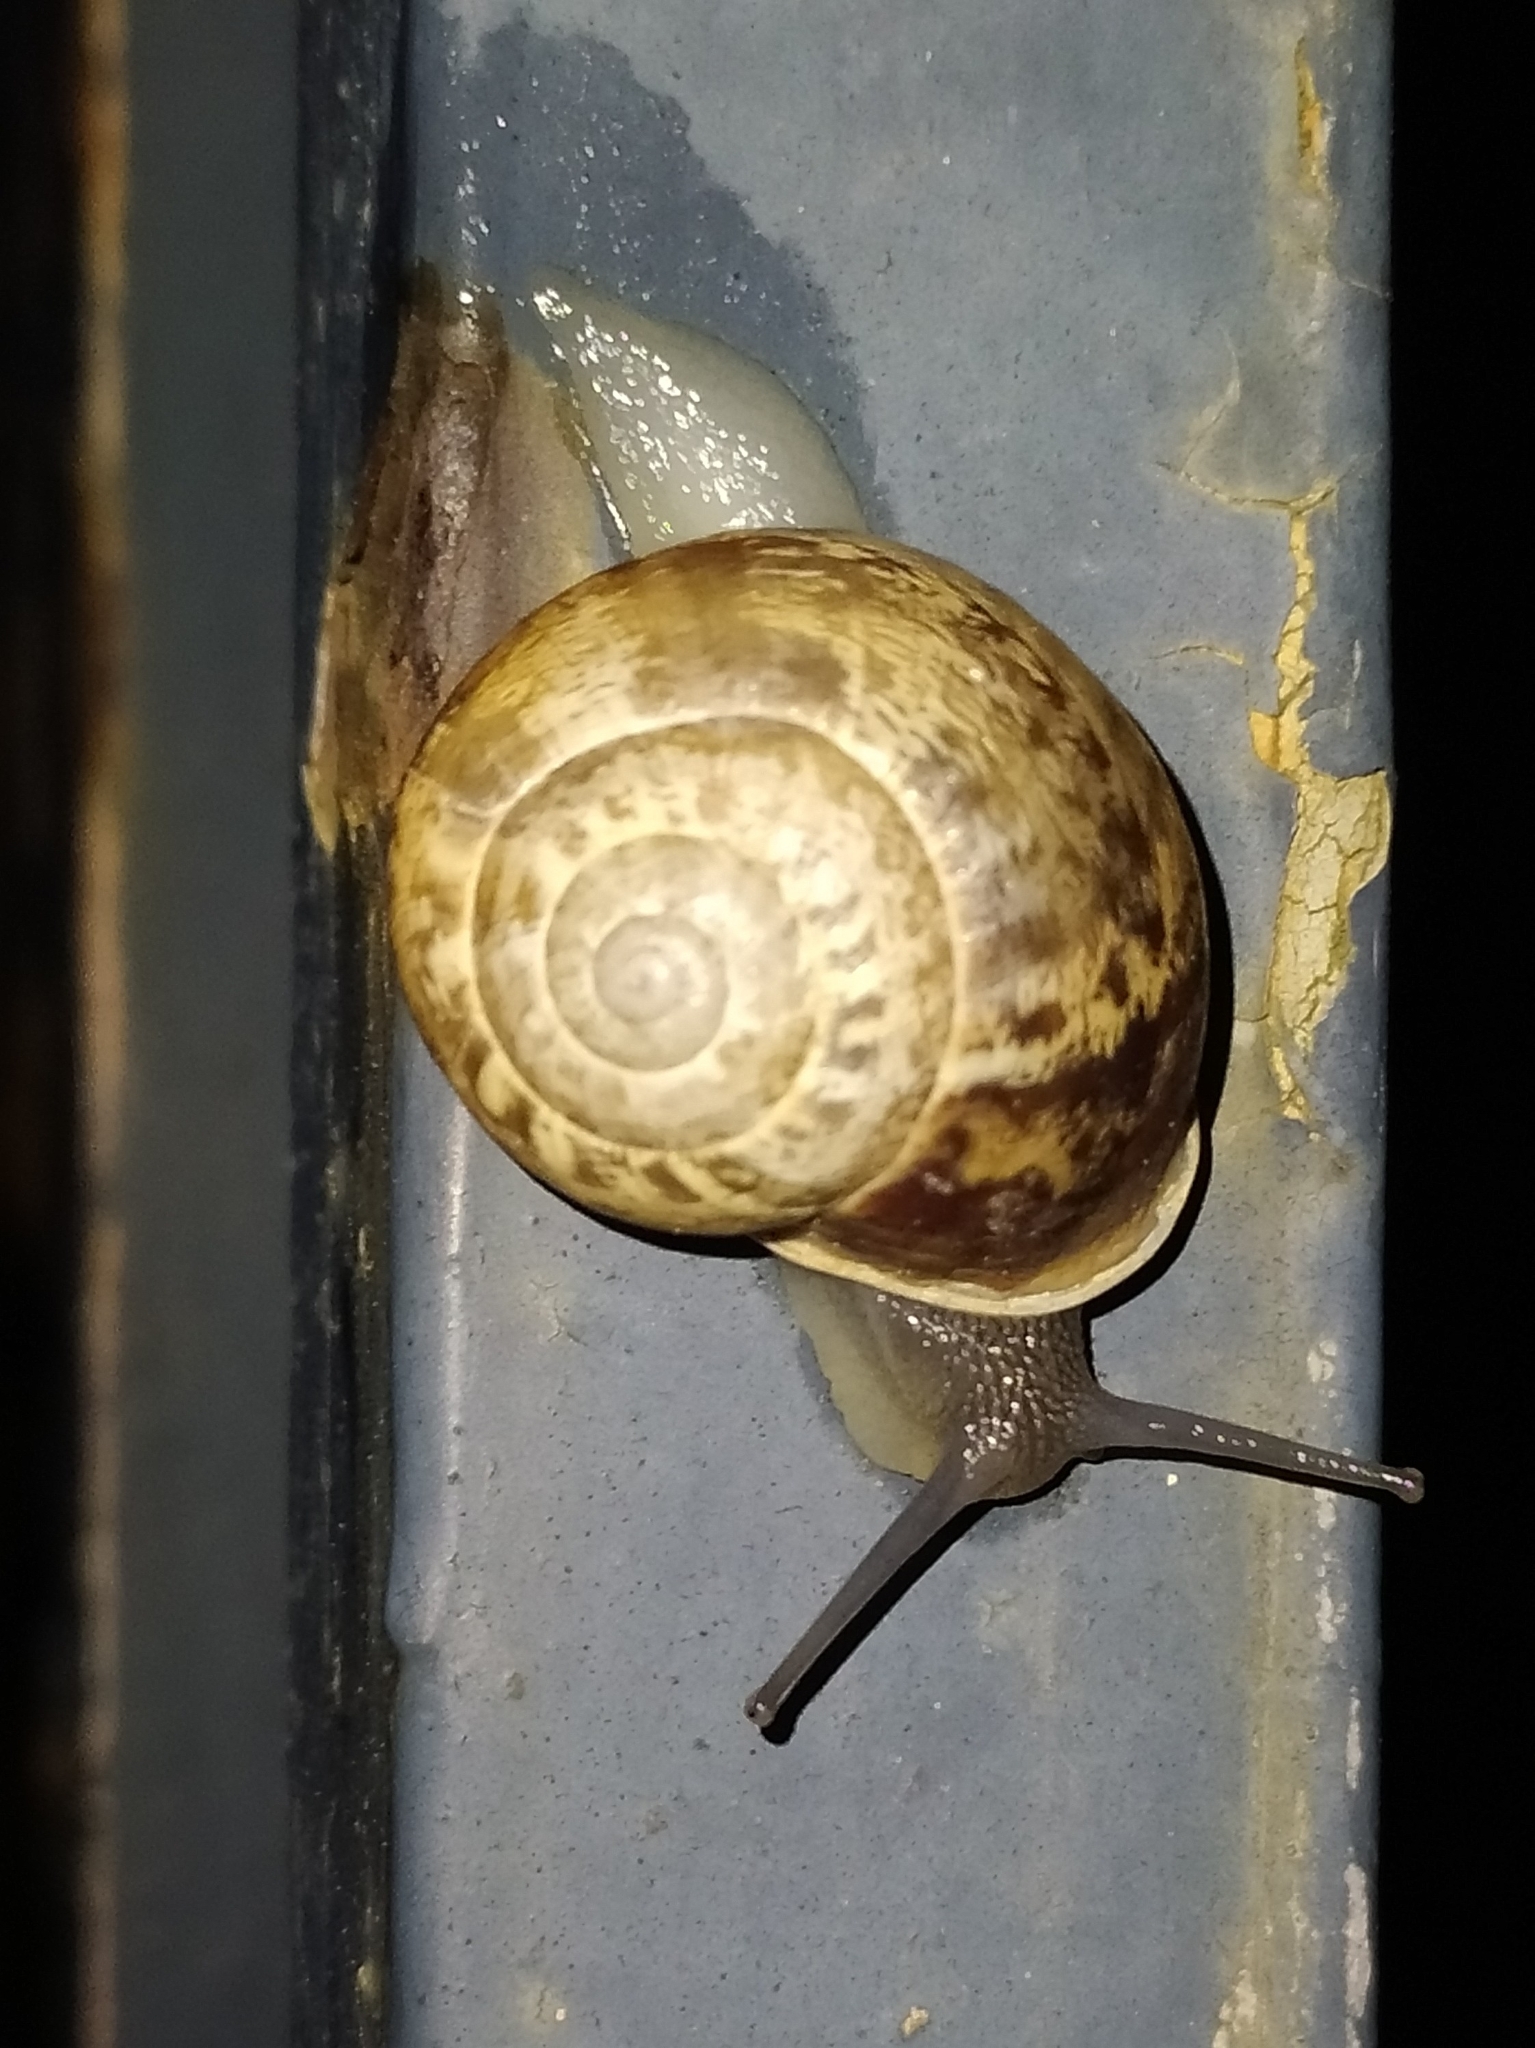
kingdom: Animalia
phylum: Mollusca
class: Gastropoda
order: Stylommatophora
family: Helicidae
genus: Eobania
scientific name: Eobania vermiculata
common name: Chocolateband snail
